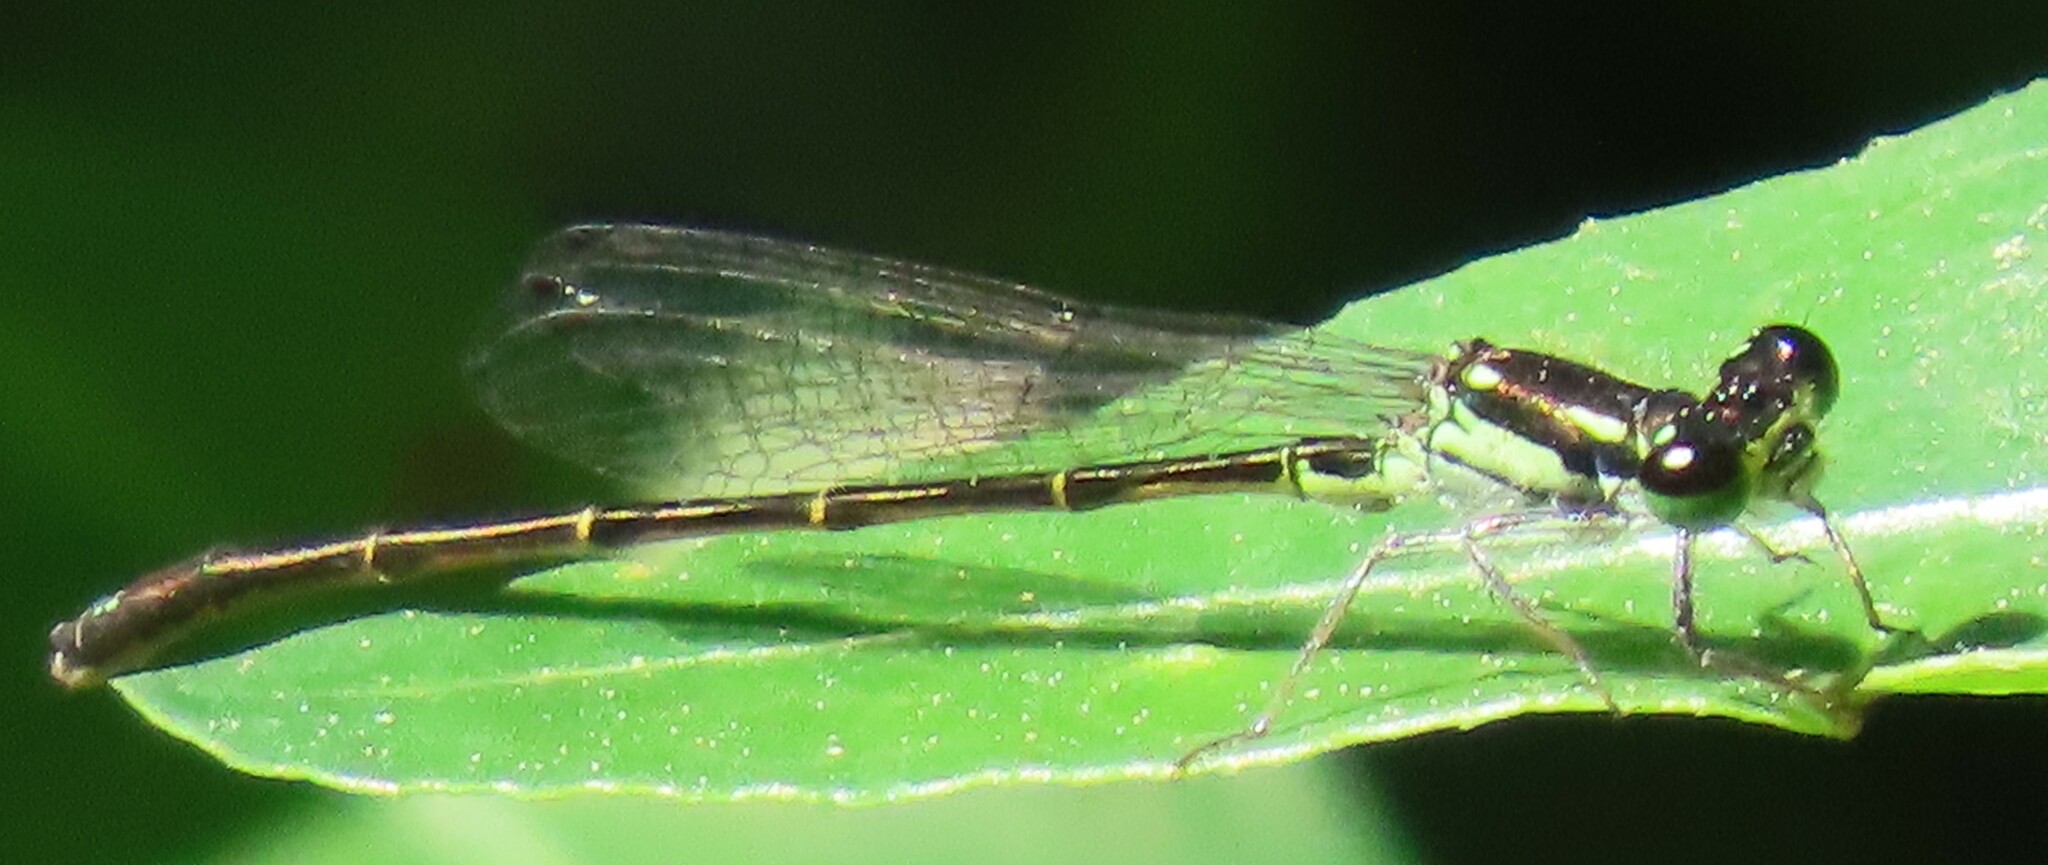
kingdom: Animalia
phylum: Arthropoda
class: Insecta
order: Odonata
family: Coenagrionidae
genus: Ischnura
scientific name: Ischnura posita
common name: Fragile forktail
